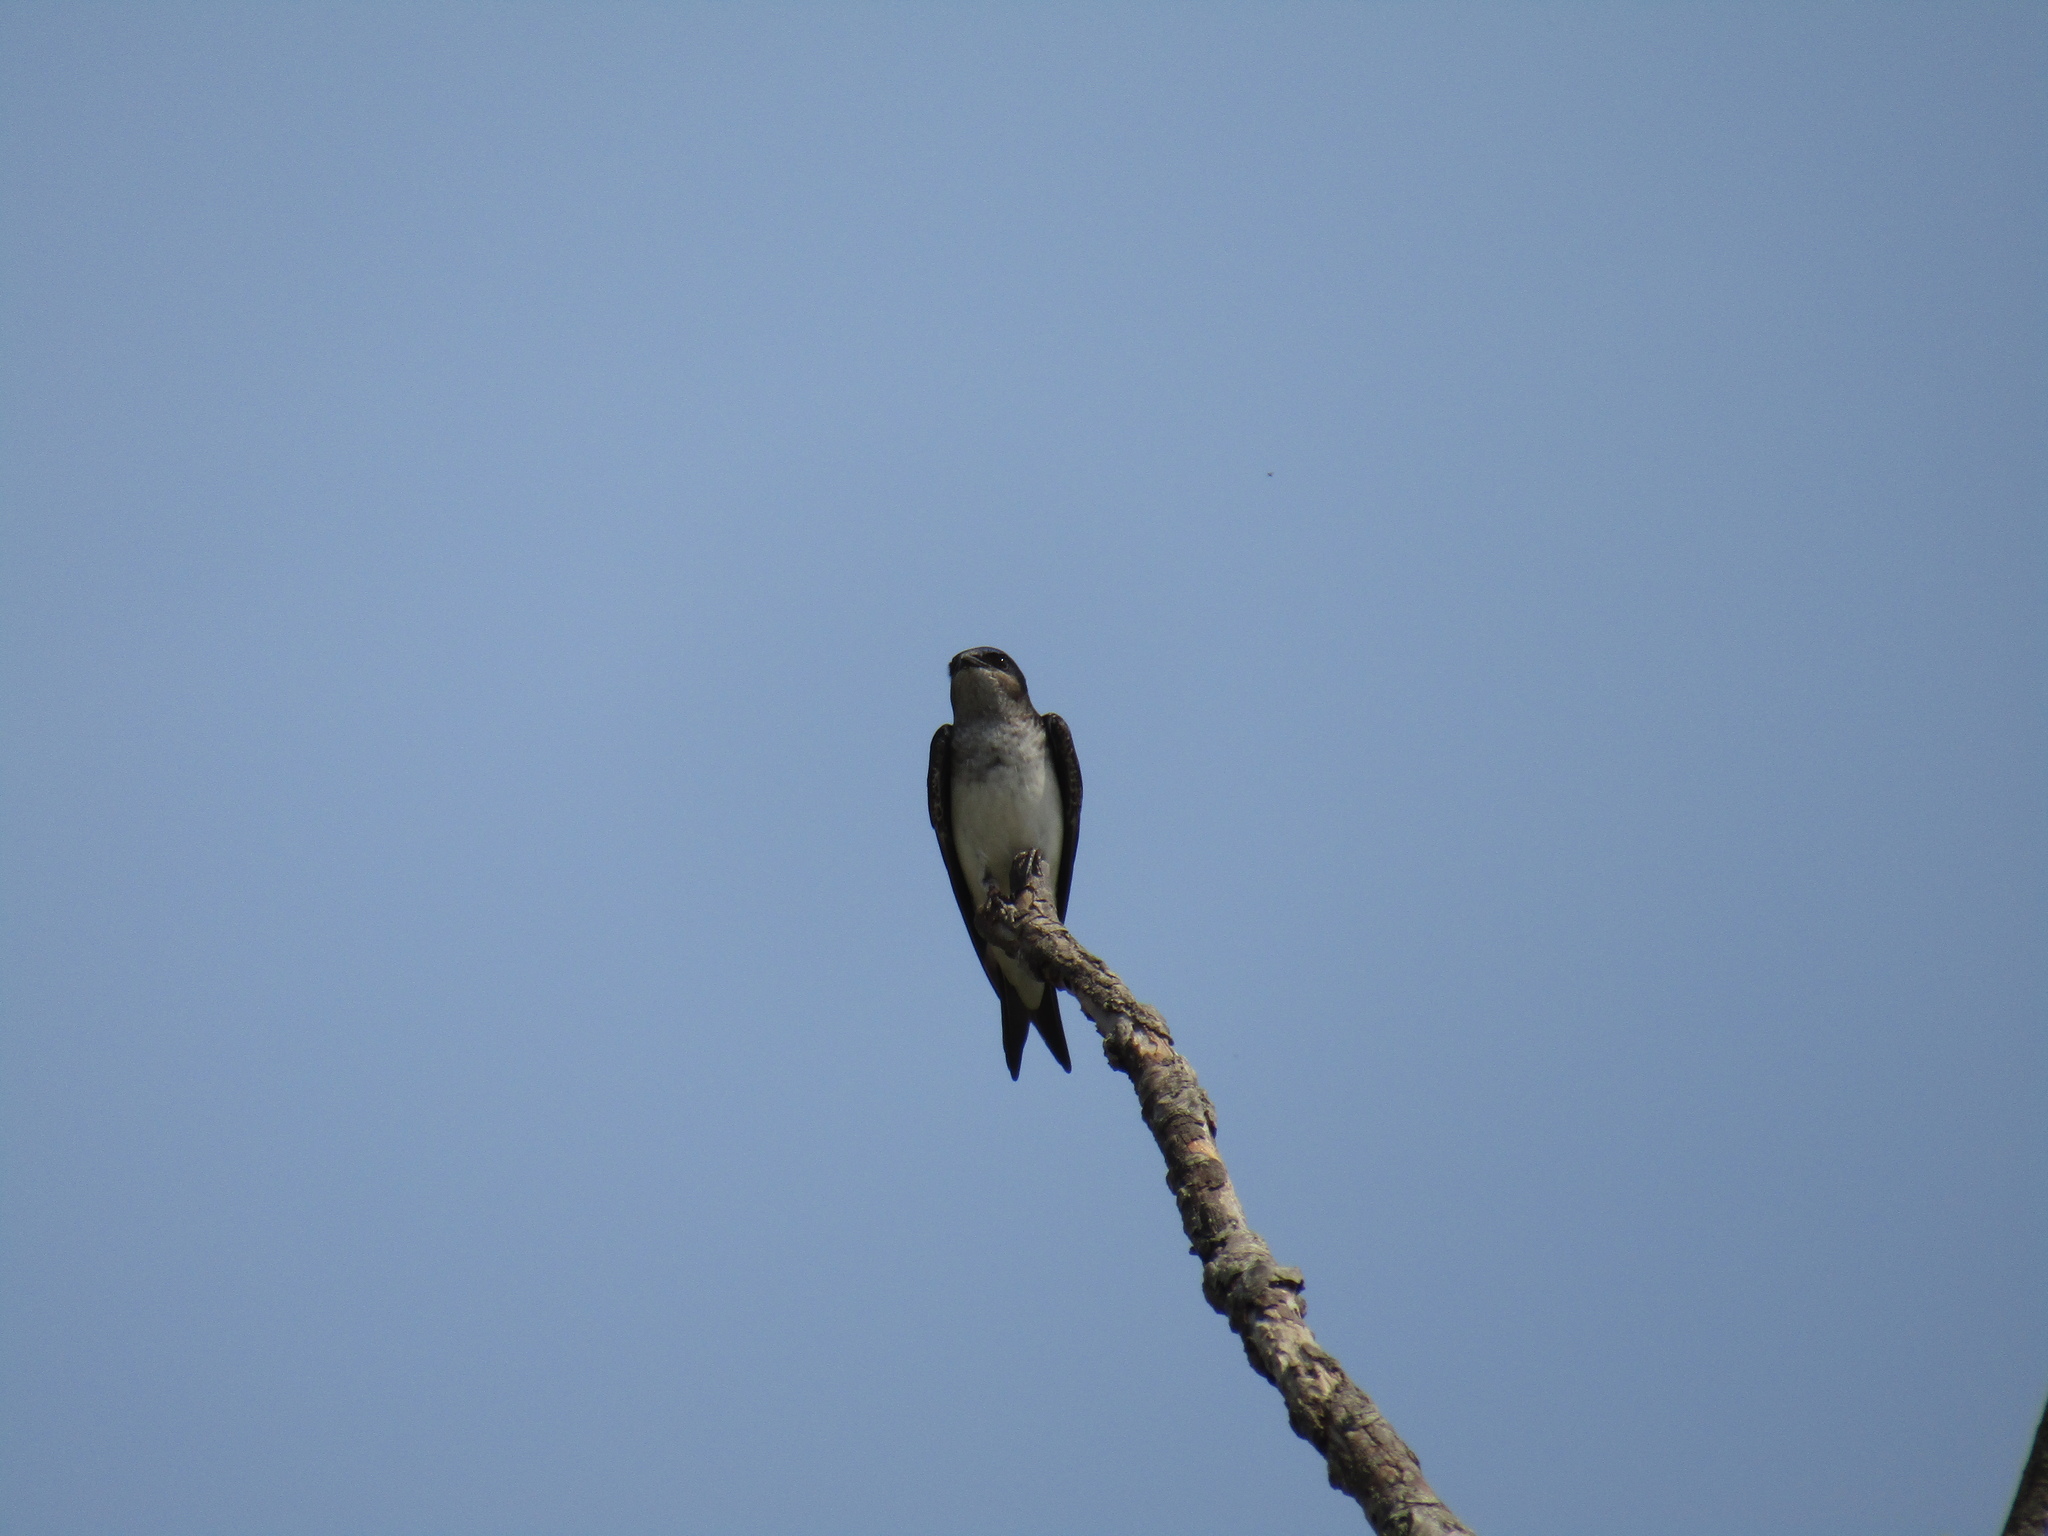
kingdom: Animalia
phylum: Chordata
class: Aves
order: Passeriformes
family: Hirundinidae
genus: Progne
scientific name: Progne chalybea
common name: Grey-breasted martin
